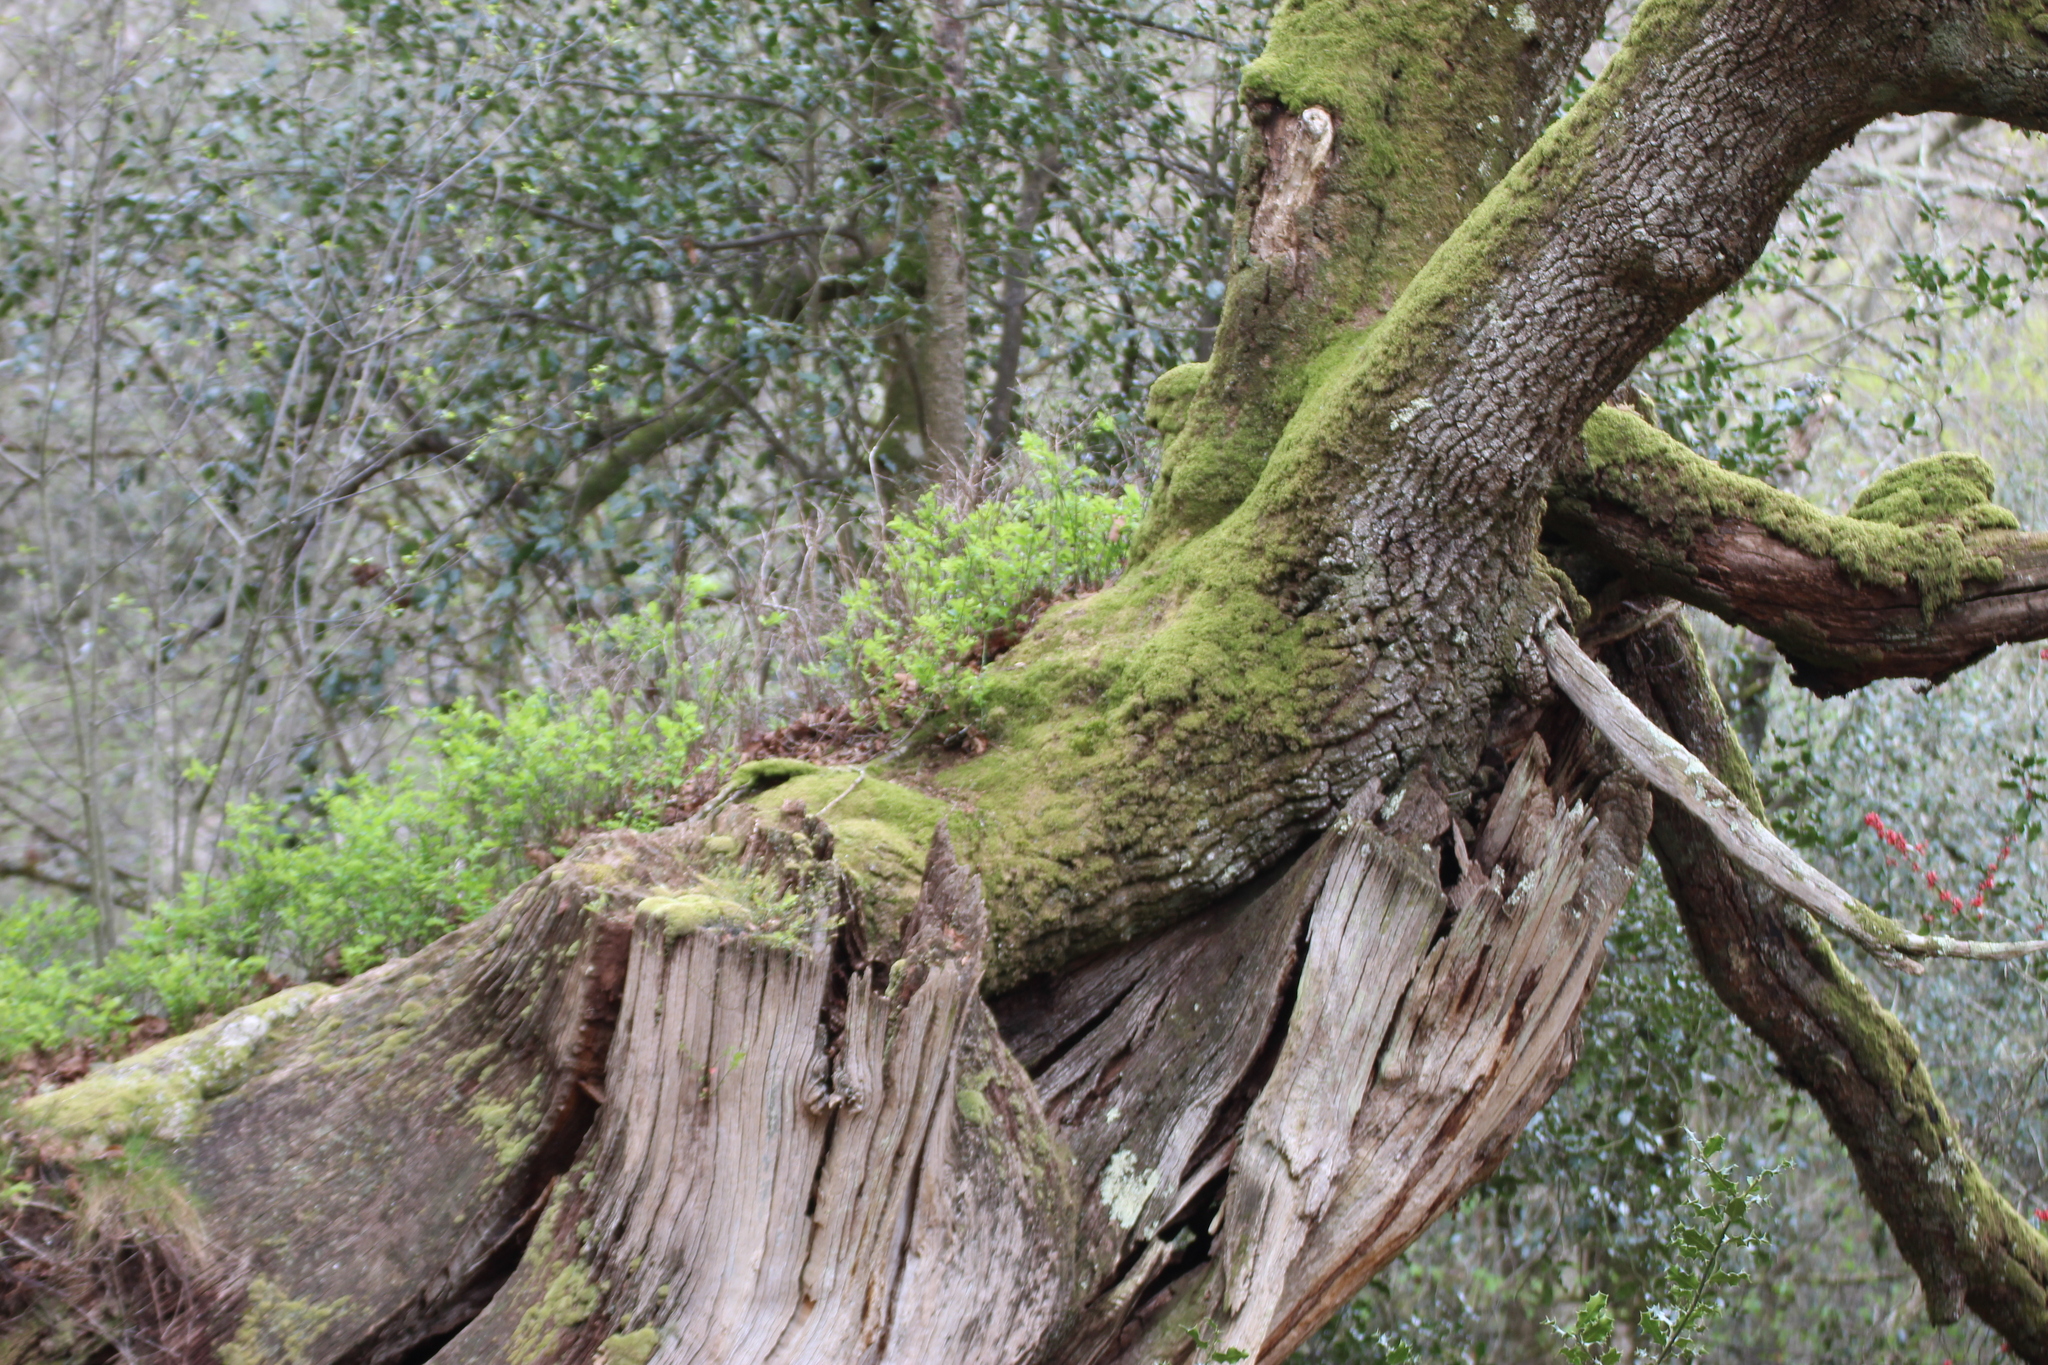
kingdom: Plantae
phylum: Tracheophyta
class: Magnoliopsida
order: Fagales
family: Fagaceae
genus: Quercus
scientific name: Quercus robur
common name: Pedunculate oak
